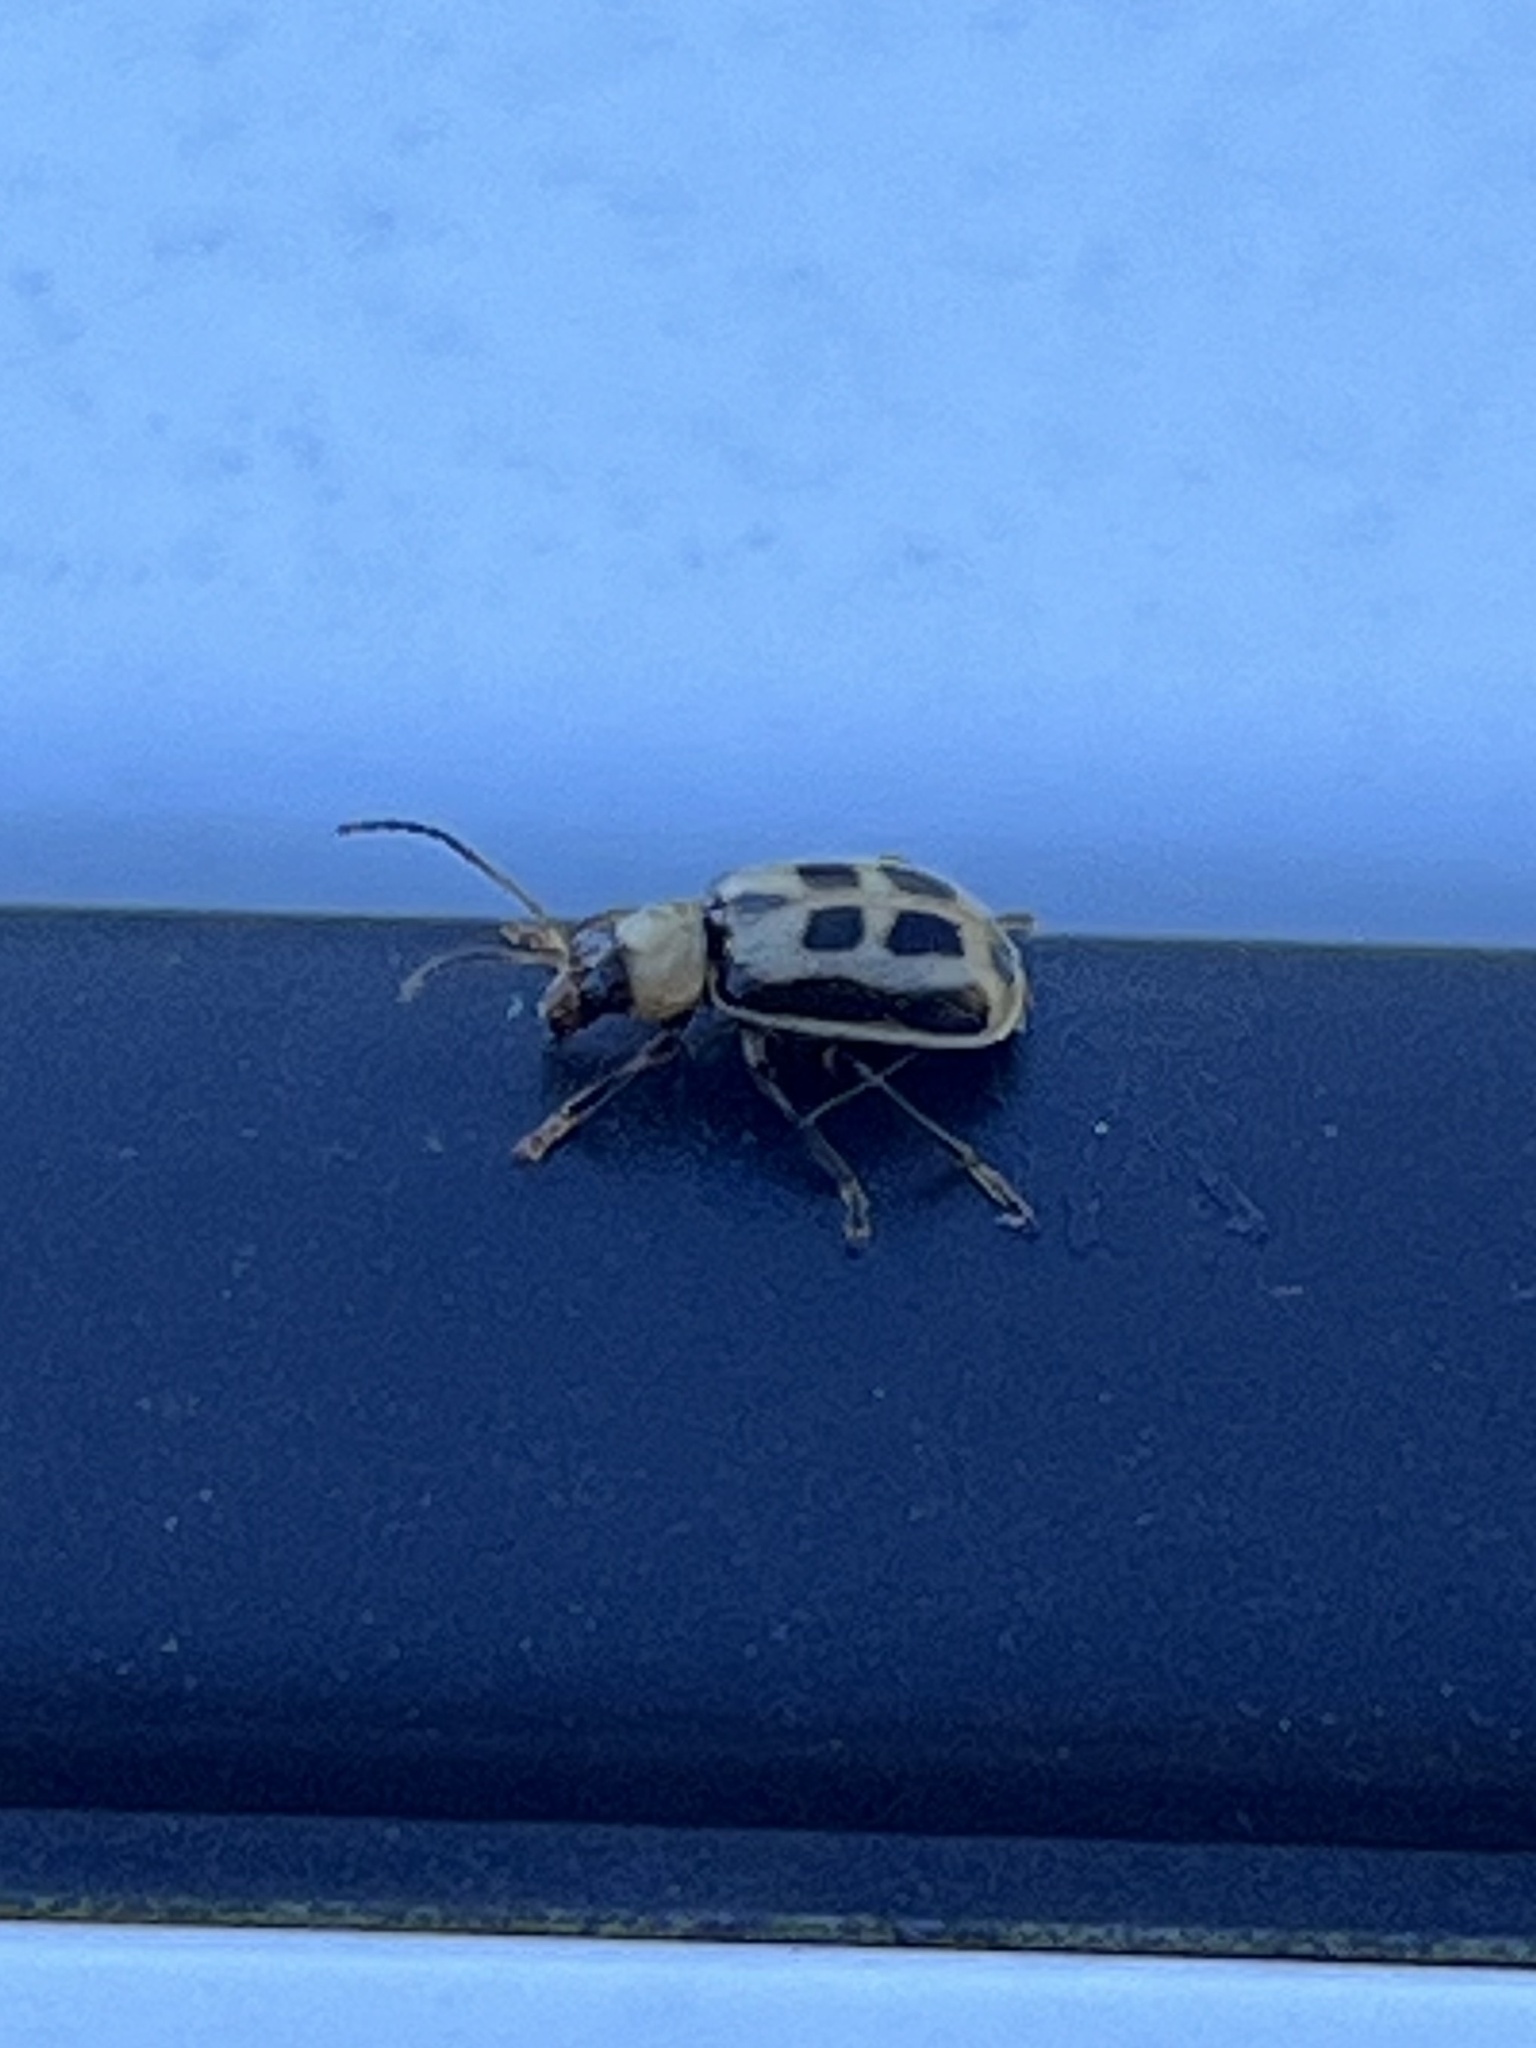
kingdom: Animalia
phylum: Arthropoda
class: Insecta
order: Coleoptera
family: Chrysomelidae
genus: Cerotoma
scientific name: Cerotoma trifurcata
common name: Bean leaf beetle
